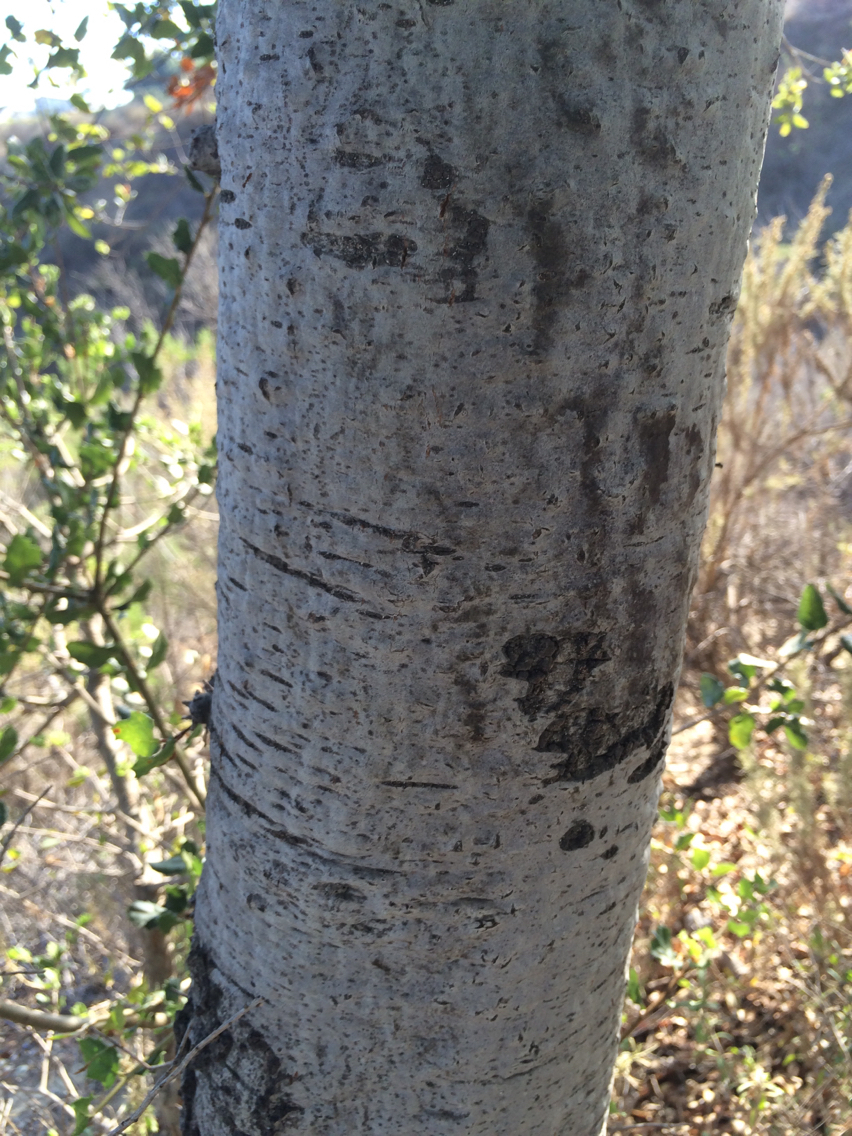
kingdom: Plantae
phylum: Tracheophyta
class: Magnoliopsida
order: Fagales
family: Fagaceae
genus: Quercus
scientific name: Quercus agrifolia
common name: California live oak
